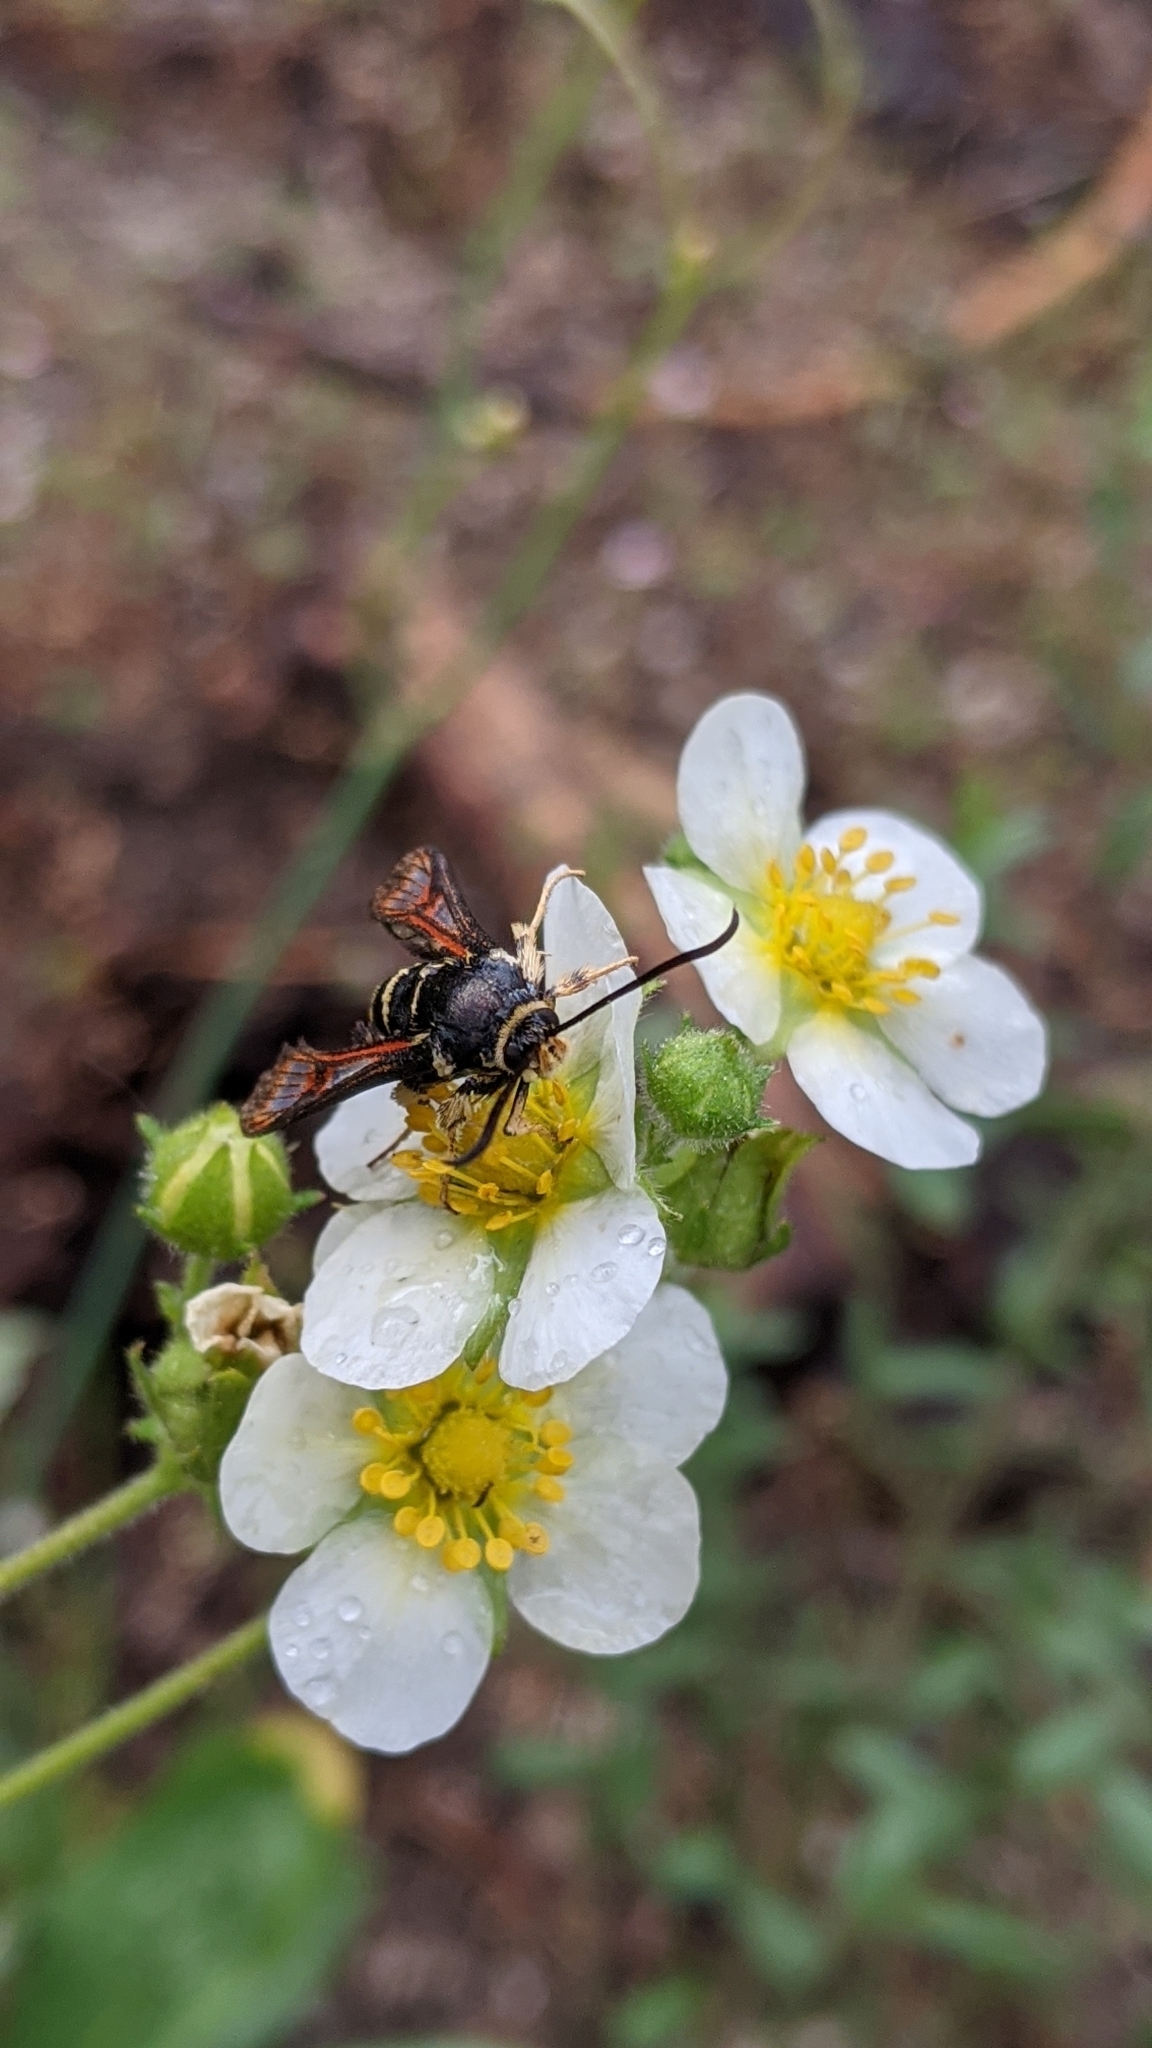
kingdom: Animalia
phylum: Arthropoda
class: Insecta
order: Lepidoptera
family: Sesiidae
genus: Albuna
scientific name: Albuna pyramidalis
